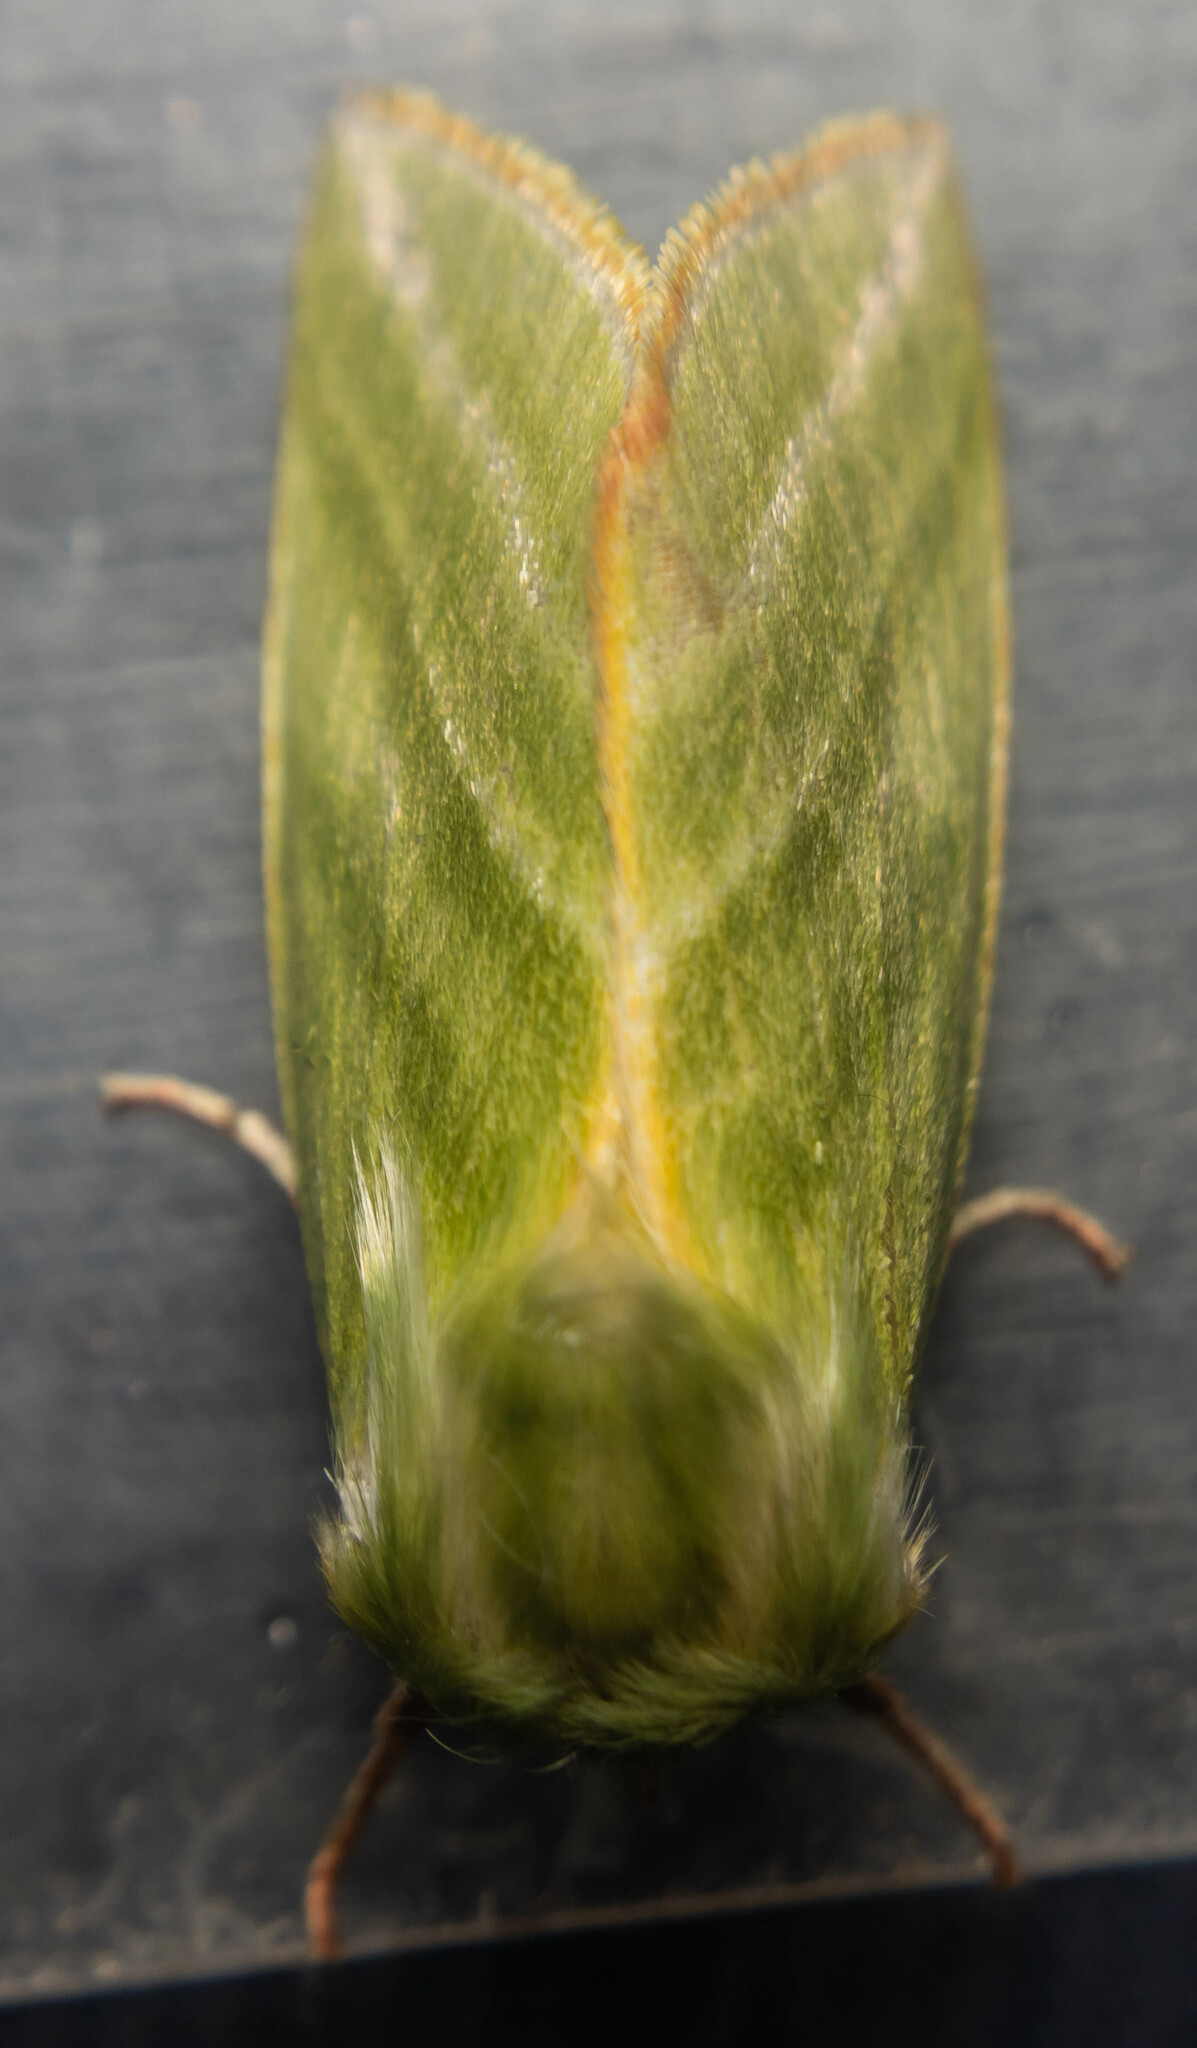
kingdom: Animalia
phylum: Arthropoda
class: Insecta
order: Lepidoptera
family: Nolidae
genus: Pseudoips
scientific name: Pseudoips prasinana
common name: Green silver-lines
